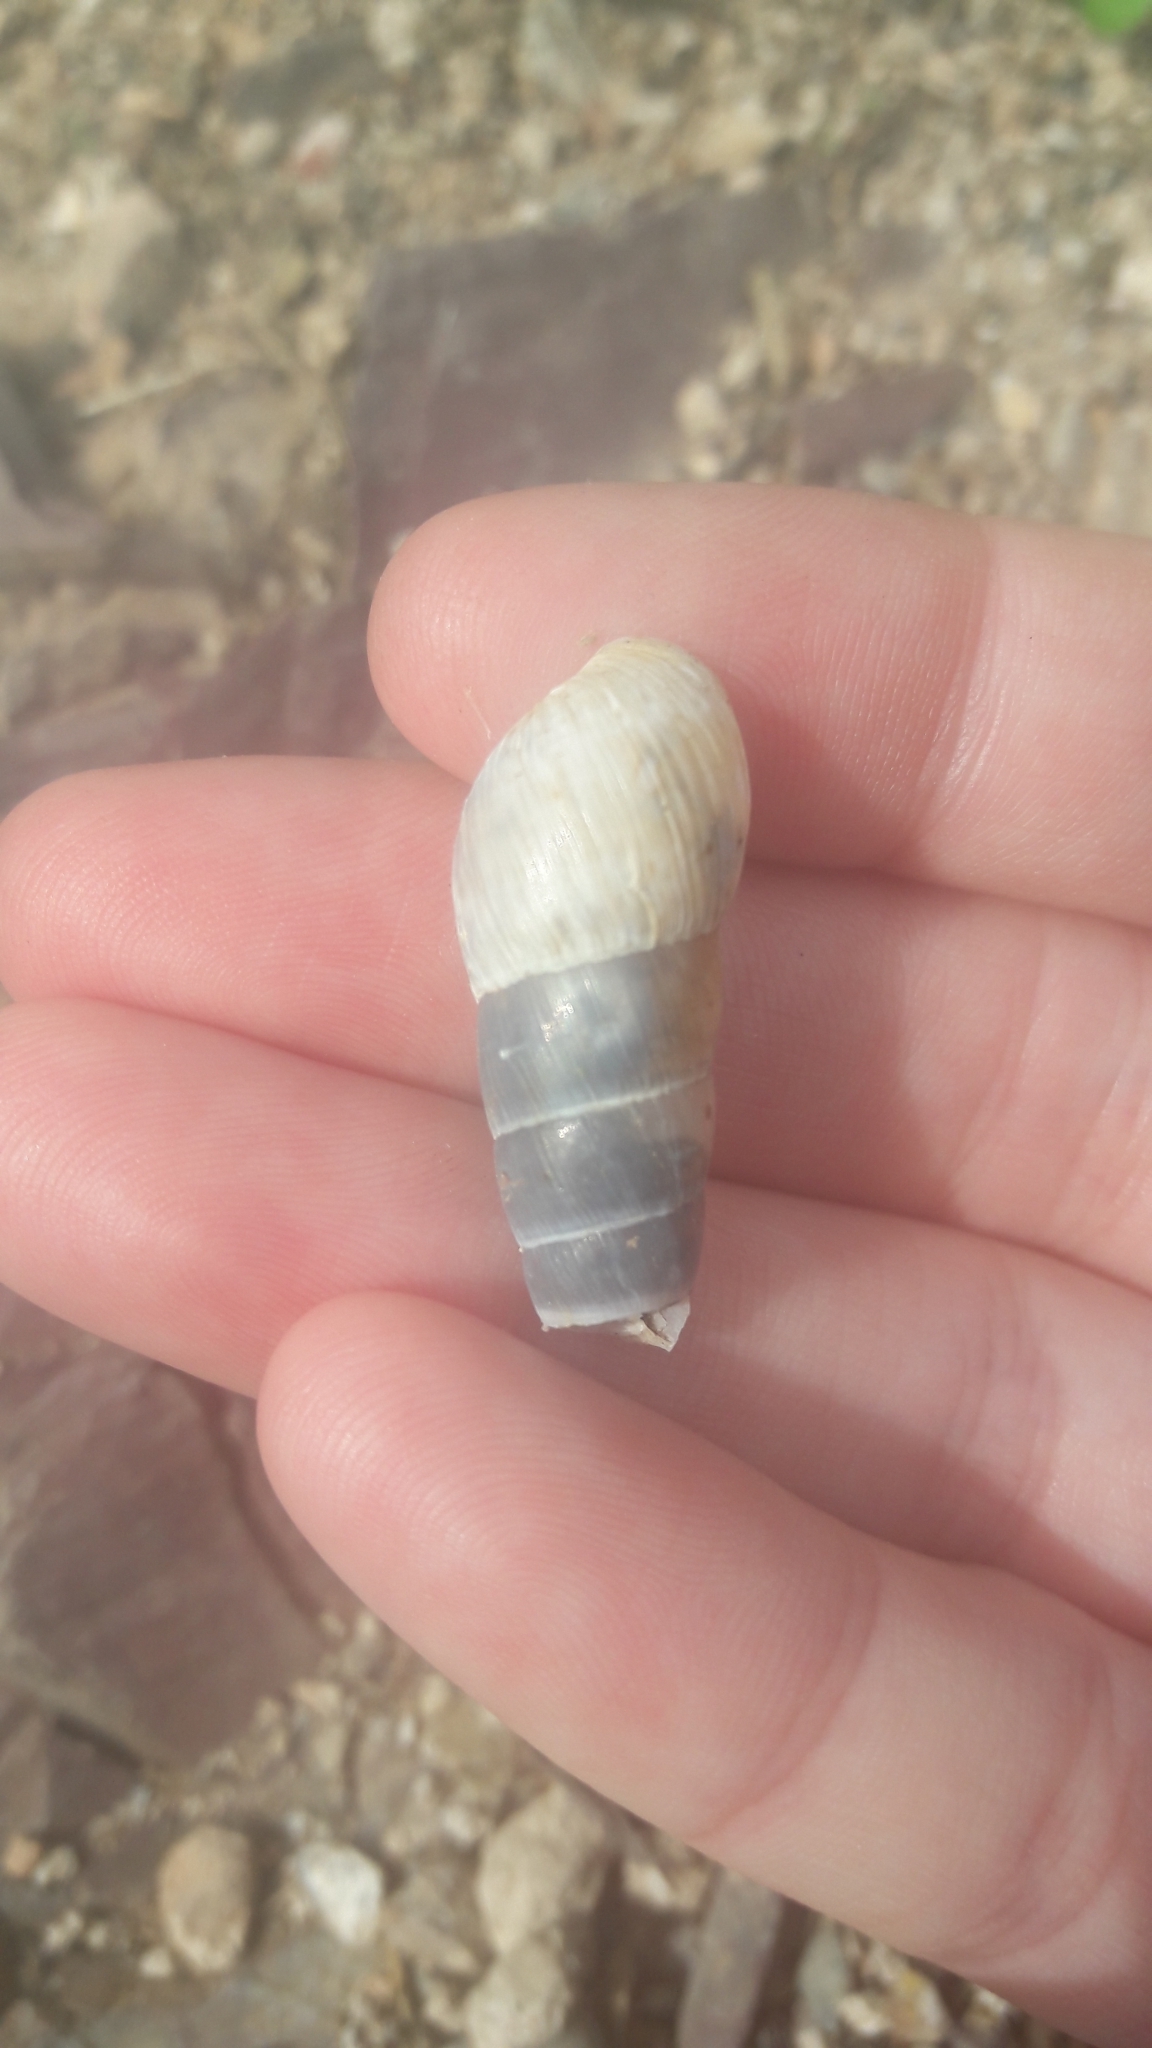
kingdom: Animalia
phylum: Mollusca
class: Gastropoda
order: Stylommatophora
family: Achatinidae
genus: Rumina
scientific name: Rumina decollata
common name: Decollate snail
